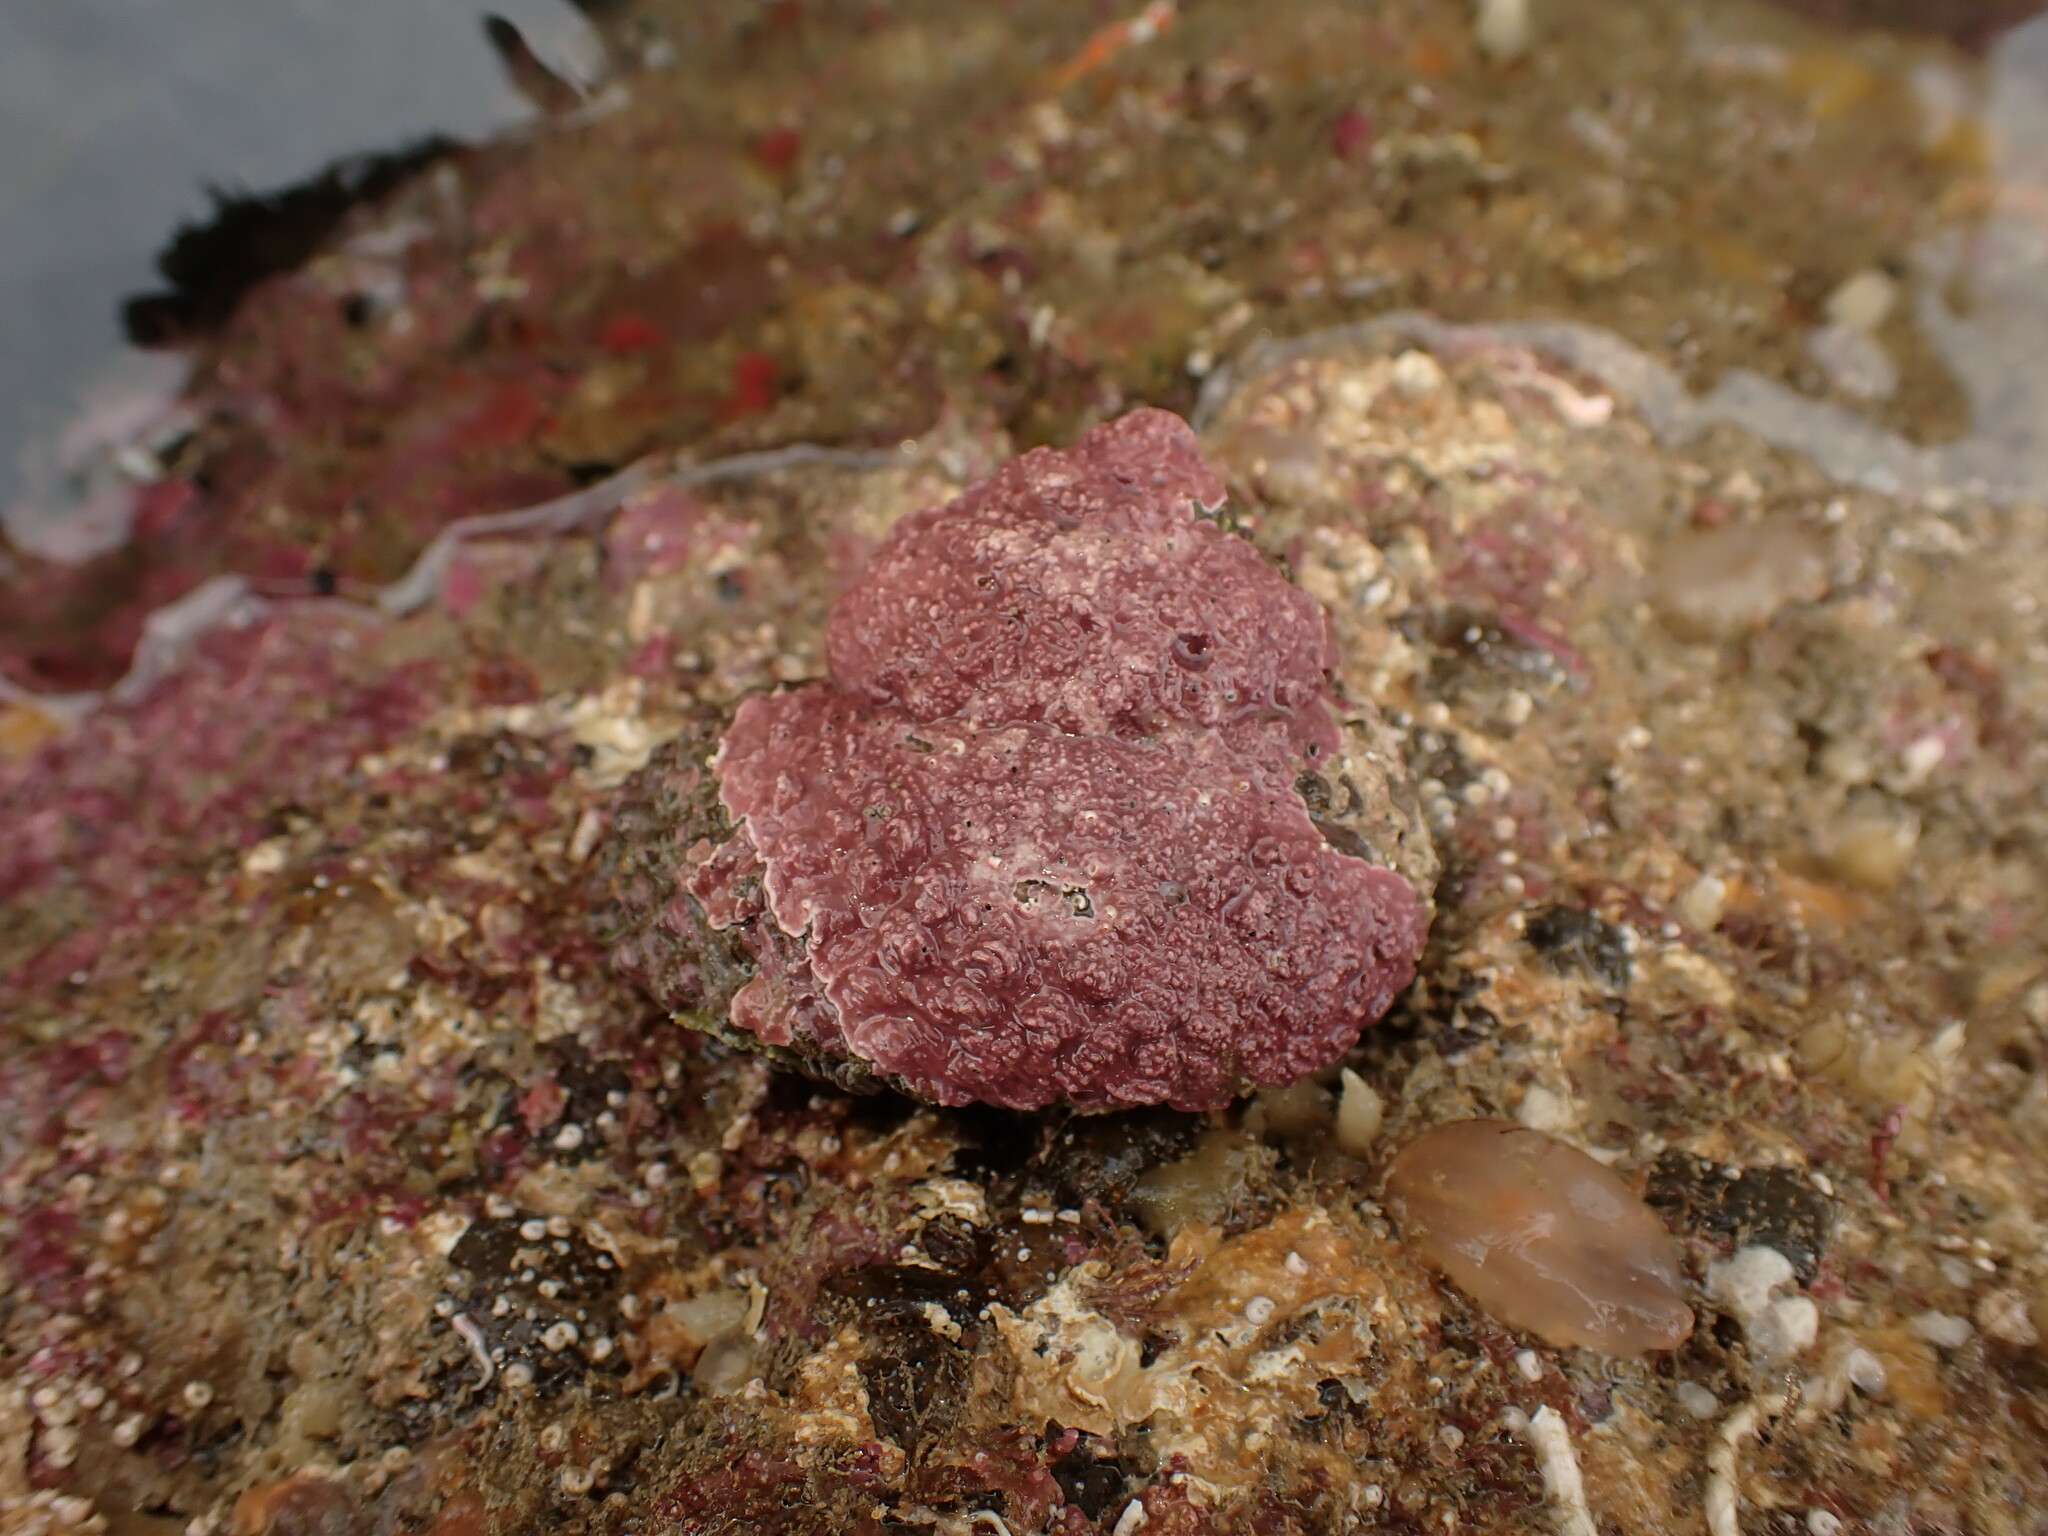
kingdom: Animalia
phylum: Mollusca
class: Gastropoda
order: Trochida
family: Turbinidae
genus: Cookia
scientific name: Cookia sulcata
